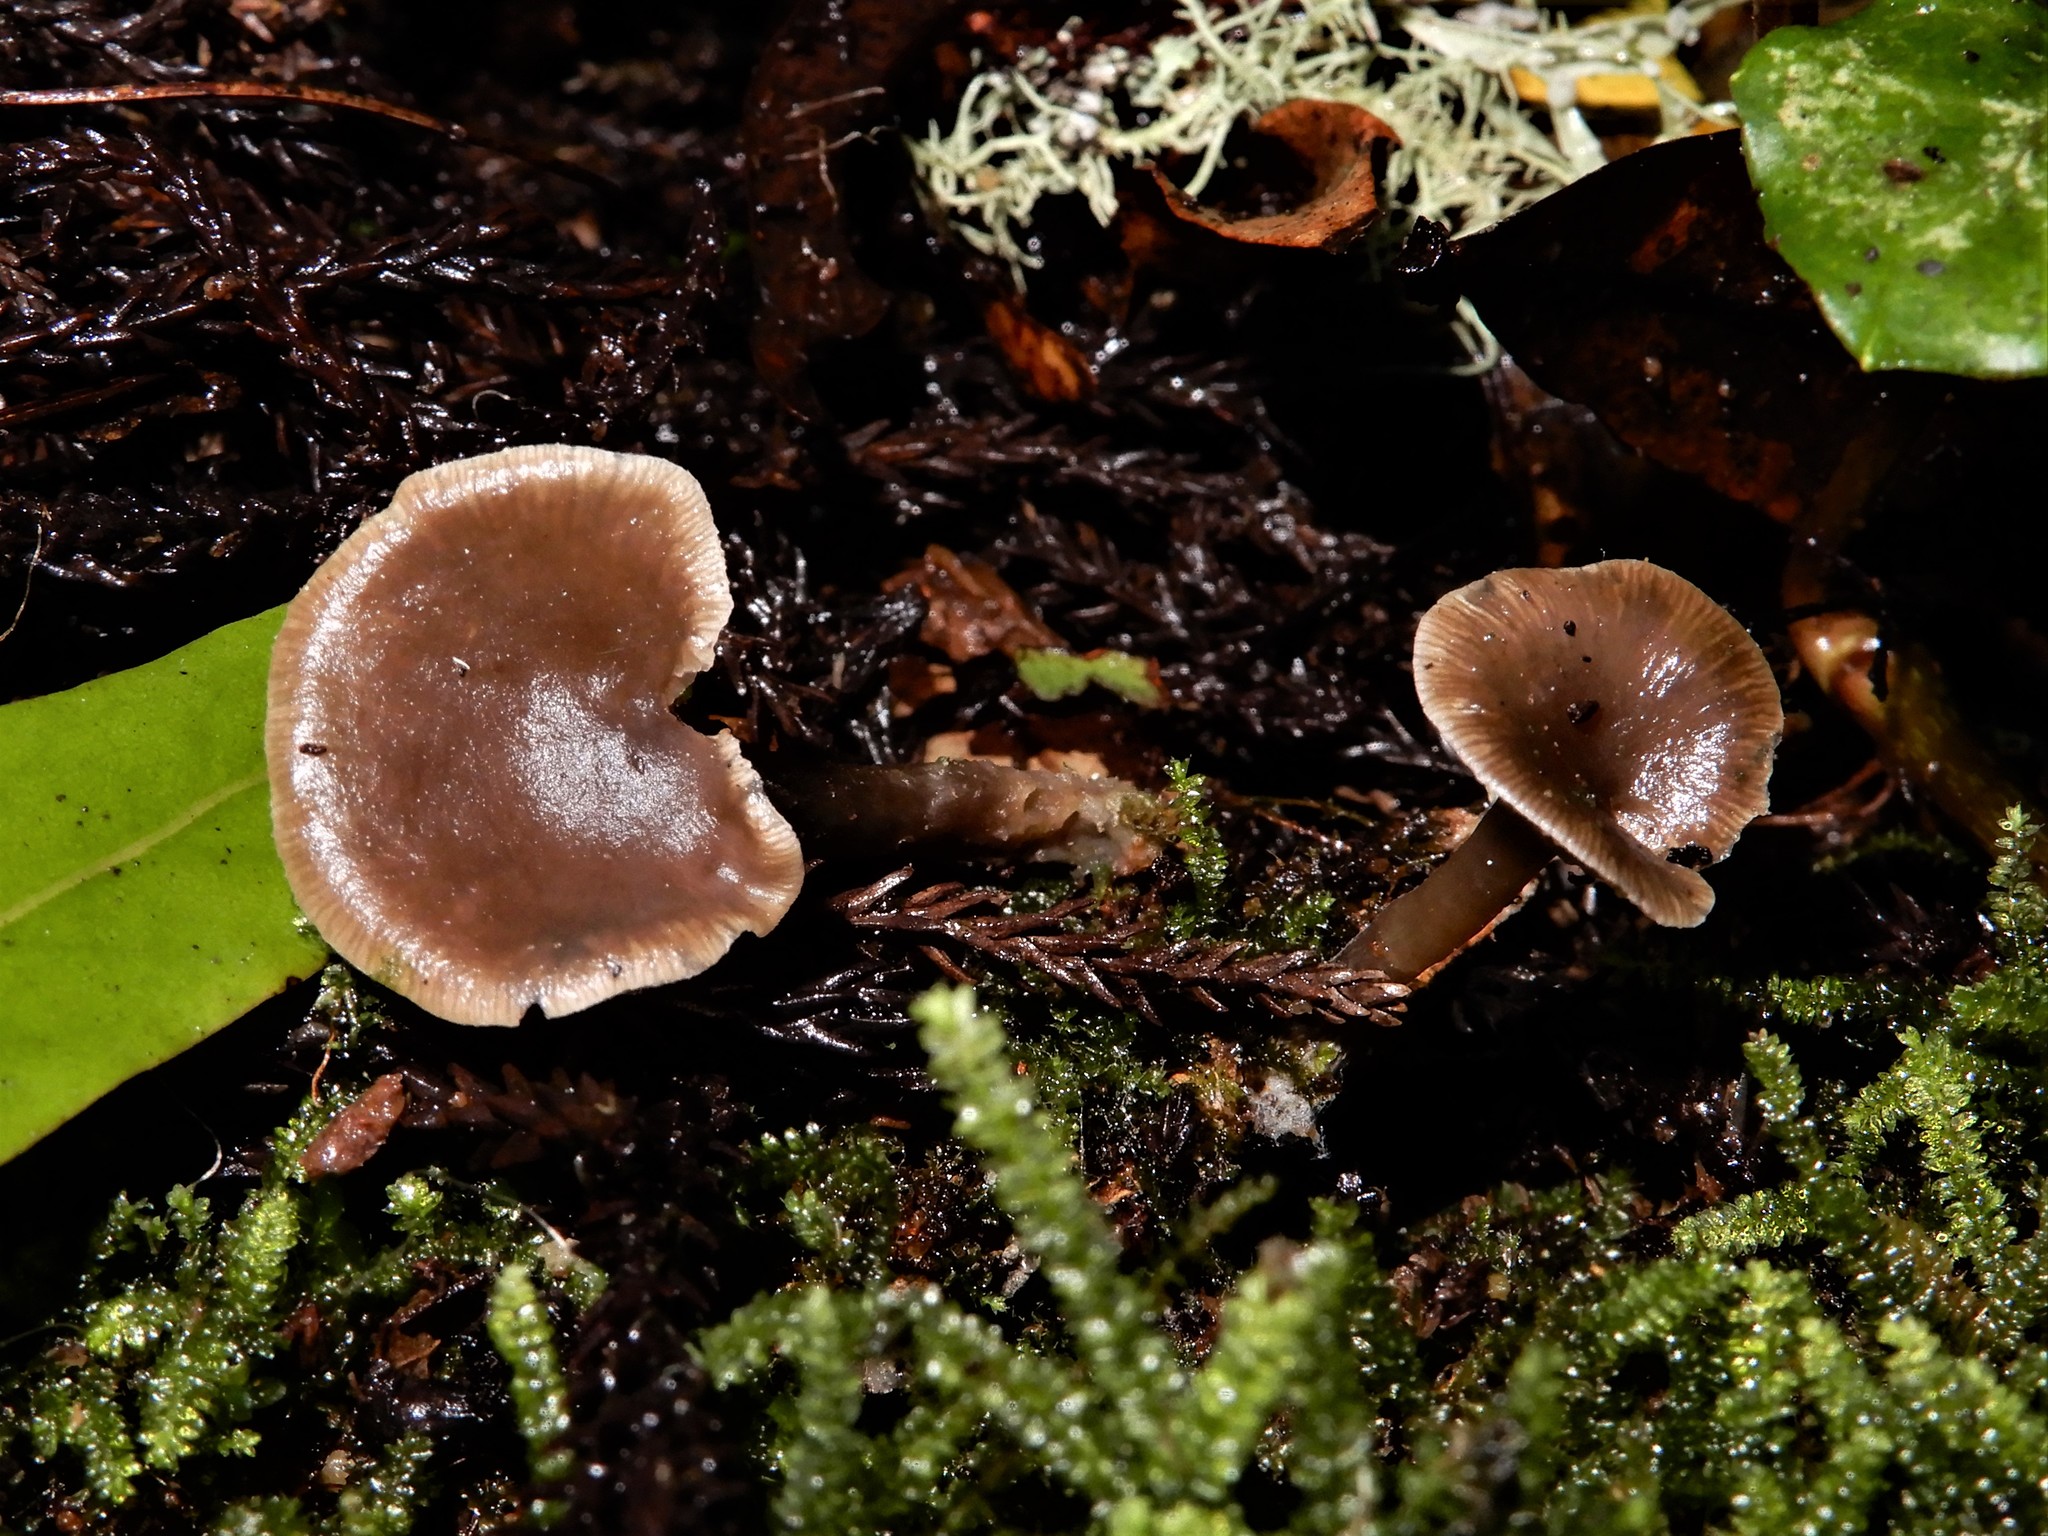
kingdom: Fungi
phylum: Basidiomycota
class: Agaricomycetes
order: Agaricales
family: Tricholomataceae
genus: Pseudolyophyllum
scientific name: Pseudolyophyllum
